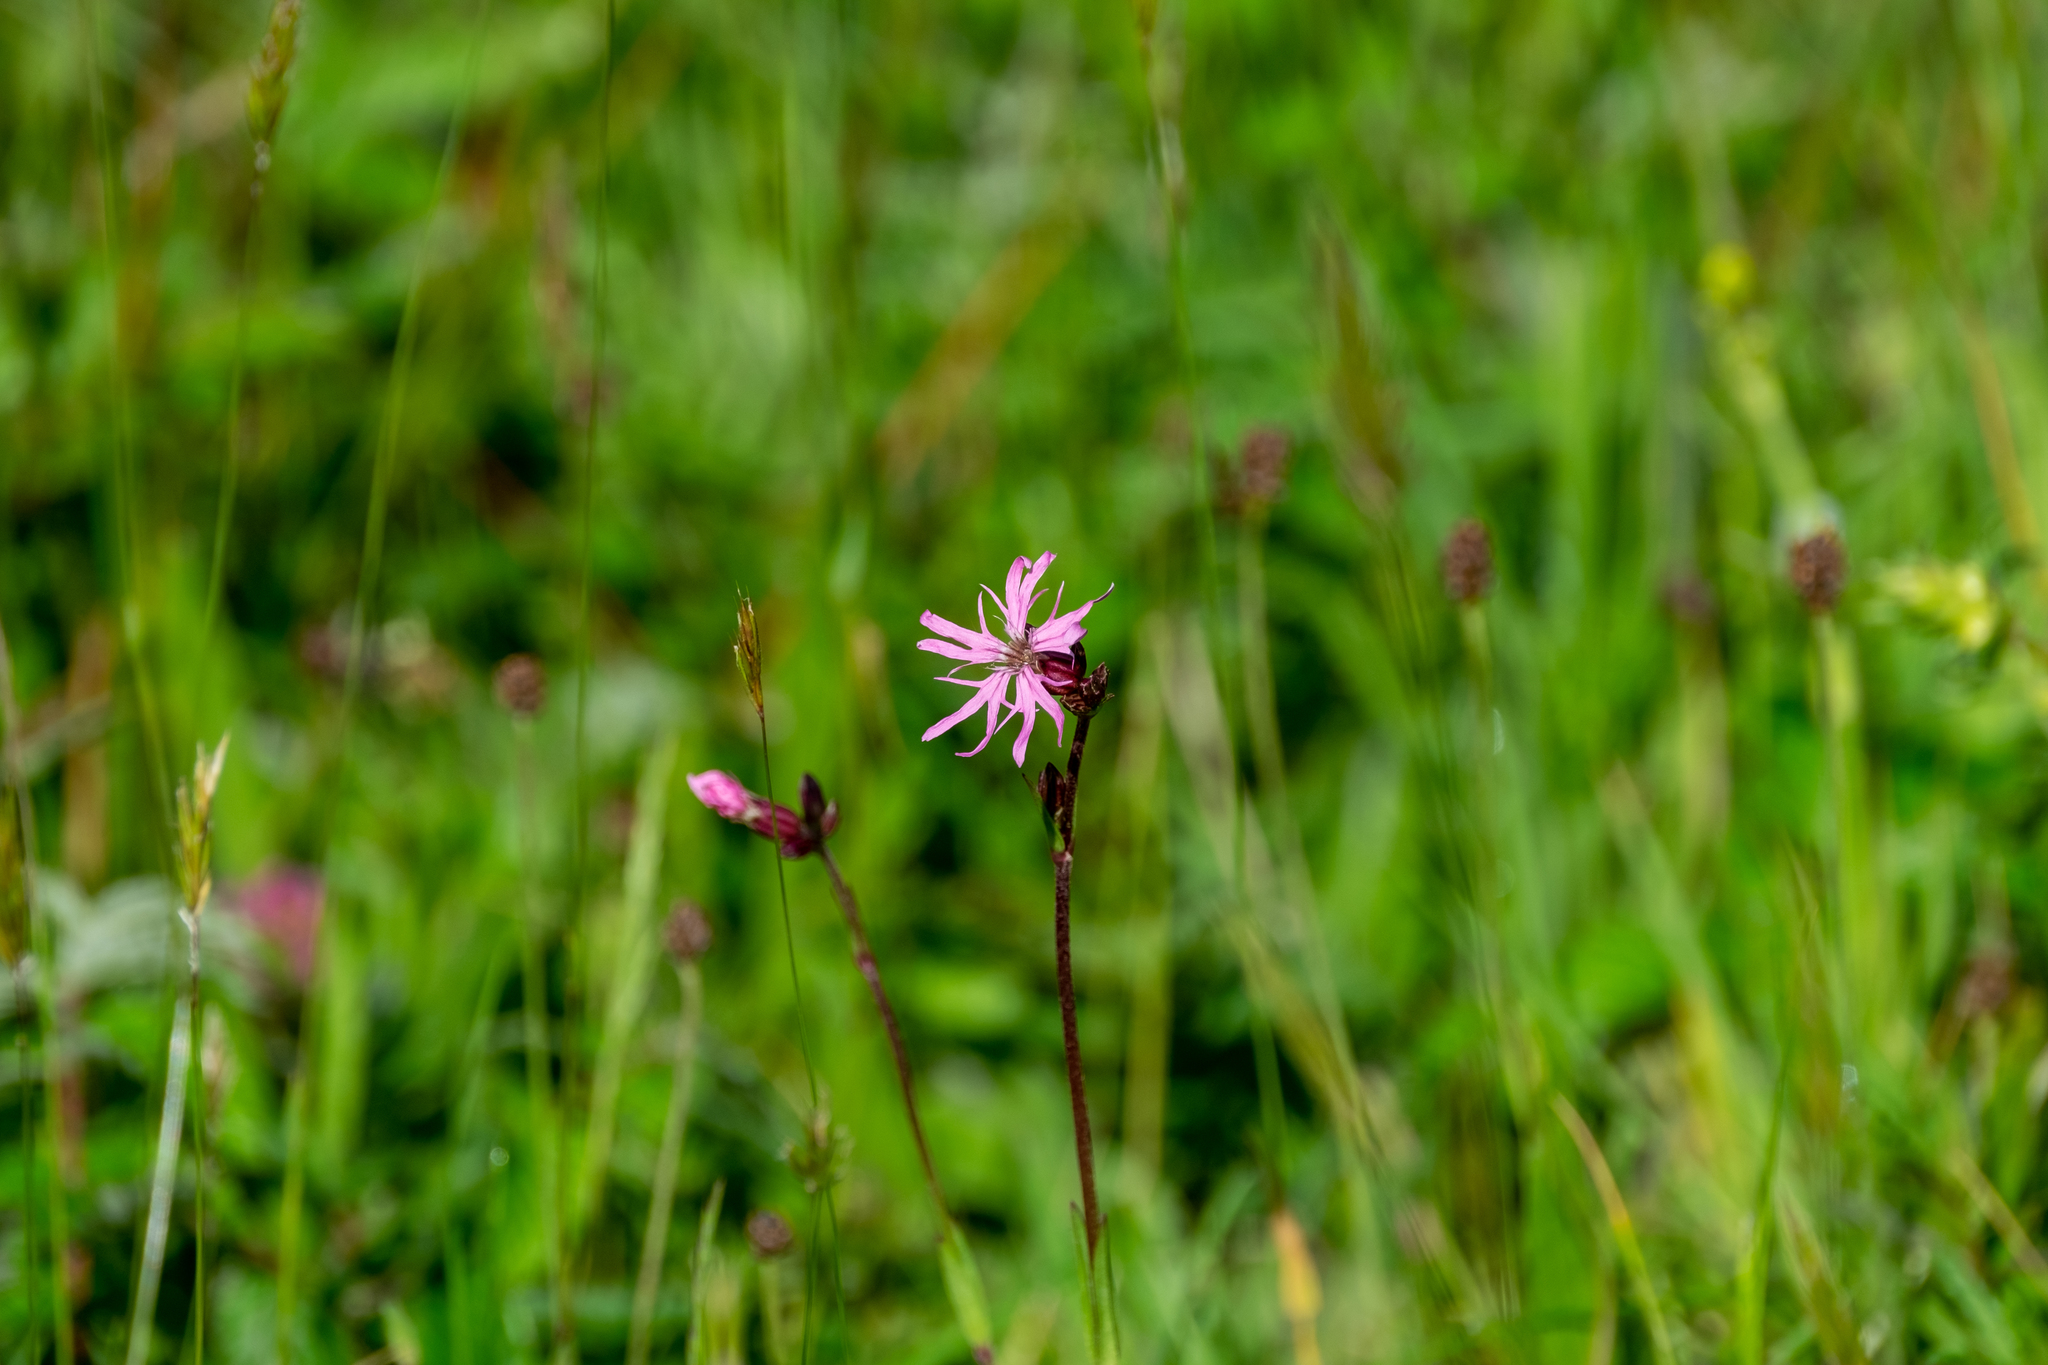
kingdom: Plantae
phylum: Tracheophyta
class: Magnoliopsida
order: Caryophyllales
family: Caryophyllaceae
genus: Silene
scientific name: Silene flos-cuculi
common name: Ragged-robin
